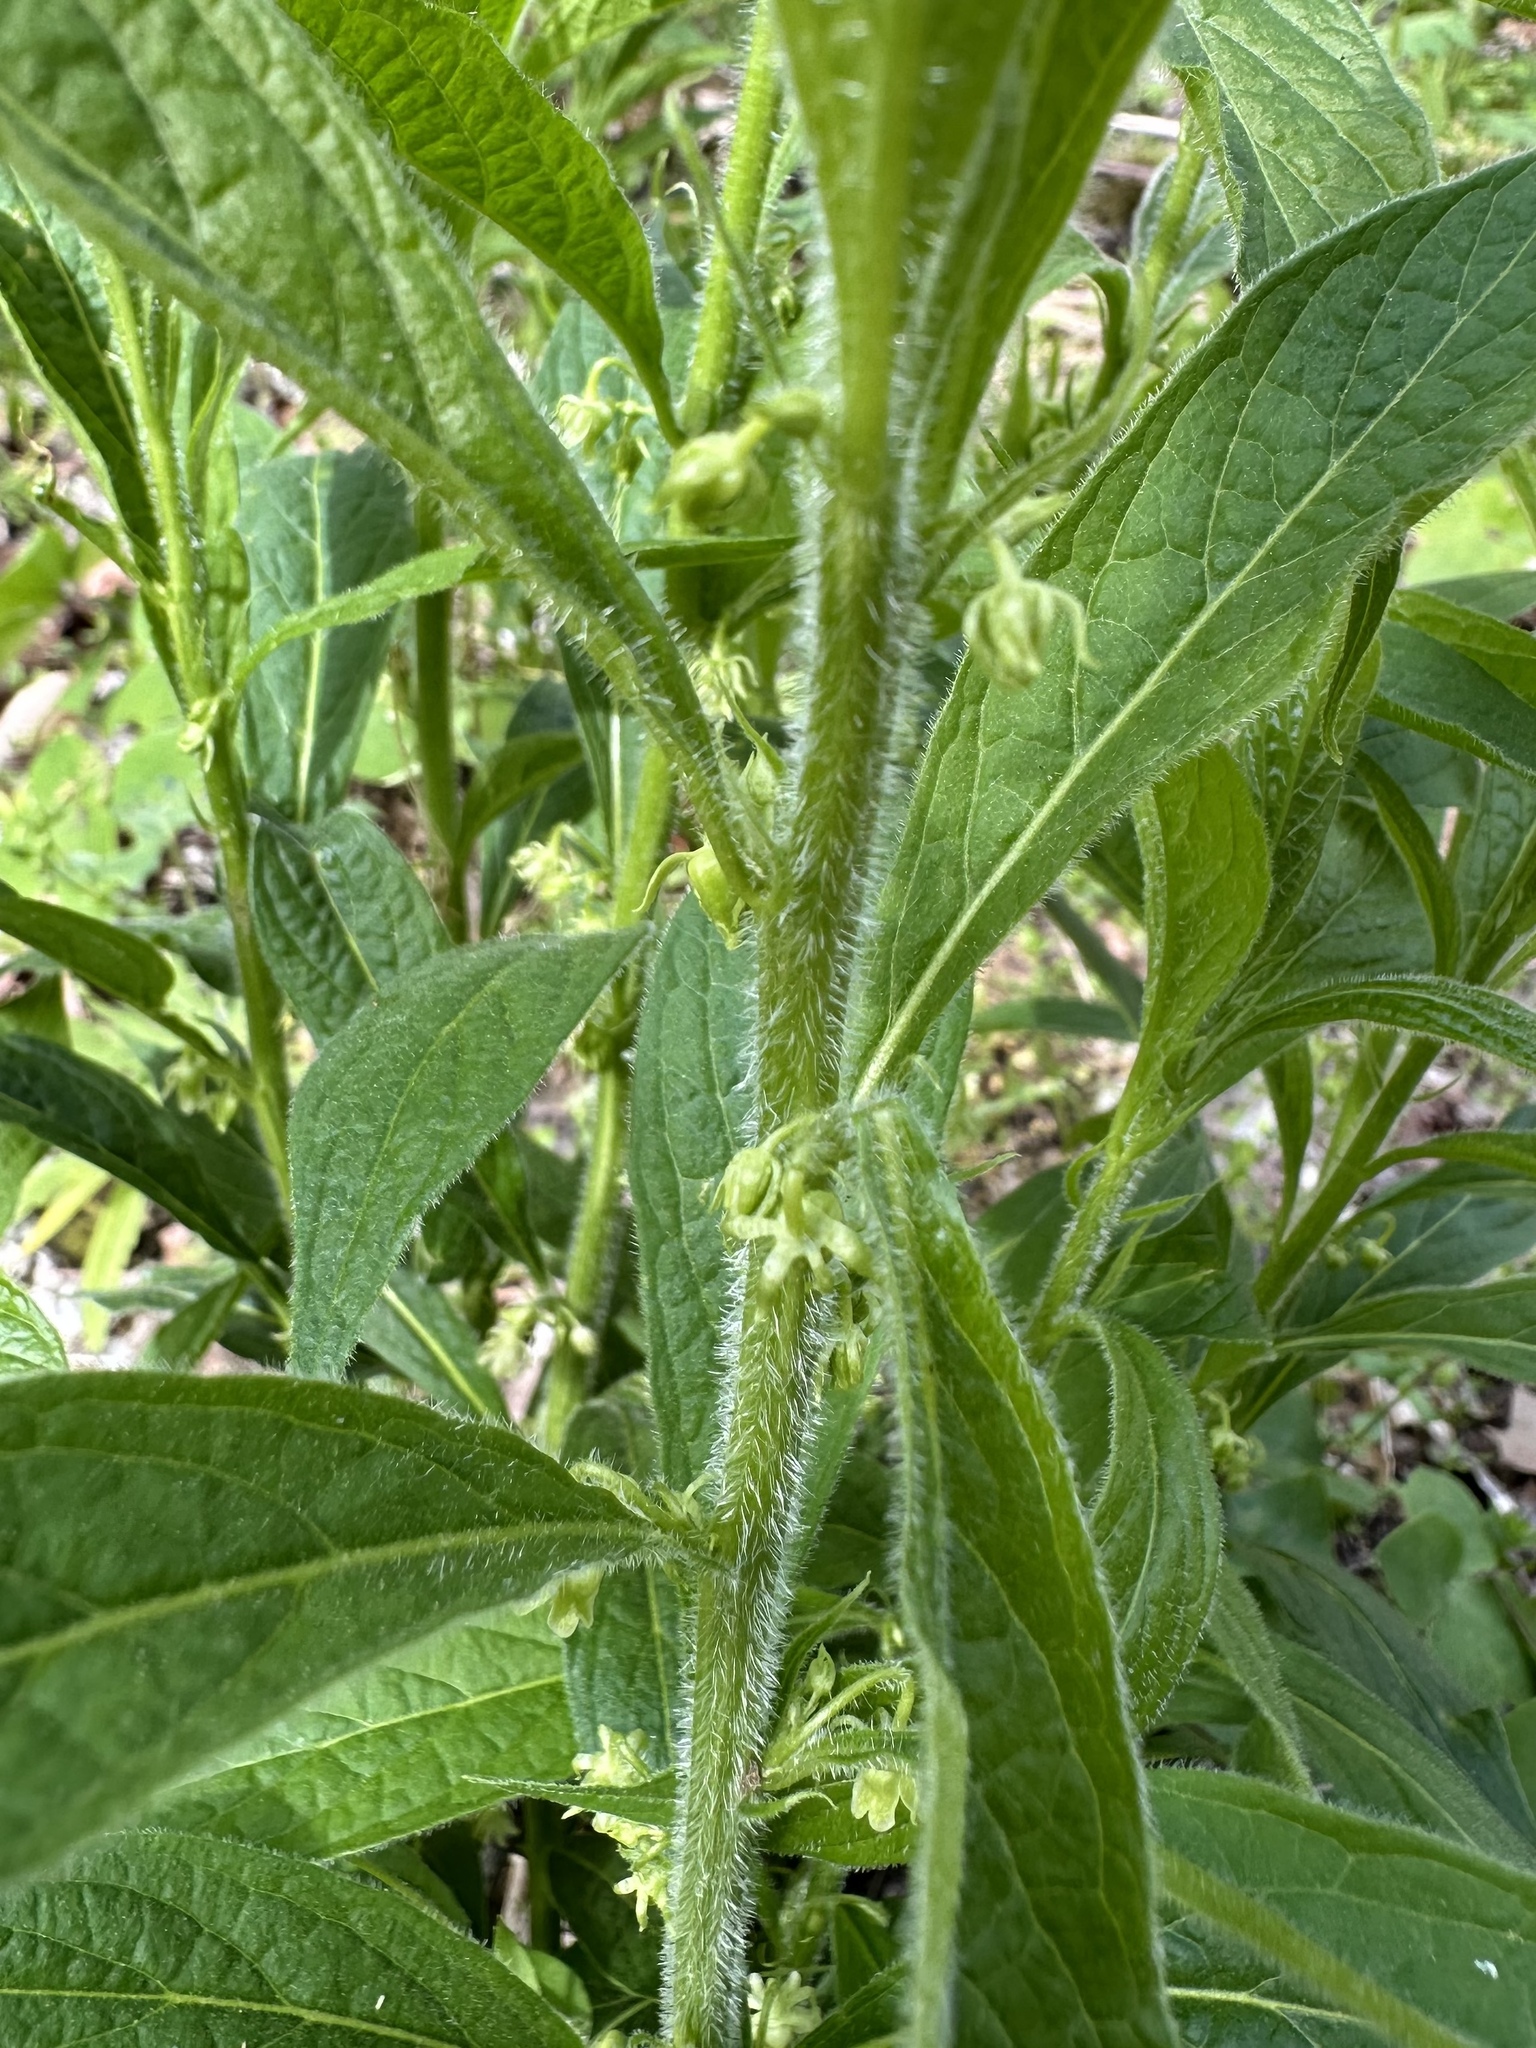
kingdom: Plantae
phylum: Tracheophyta
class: Magnoliopsida
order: Malpighiales
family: Violaceae
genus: Cubelium
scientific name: Cubelium concolor
